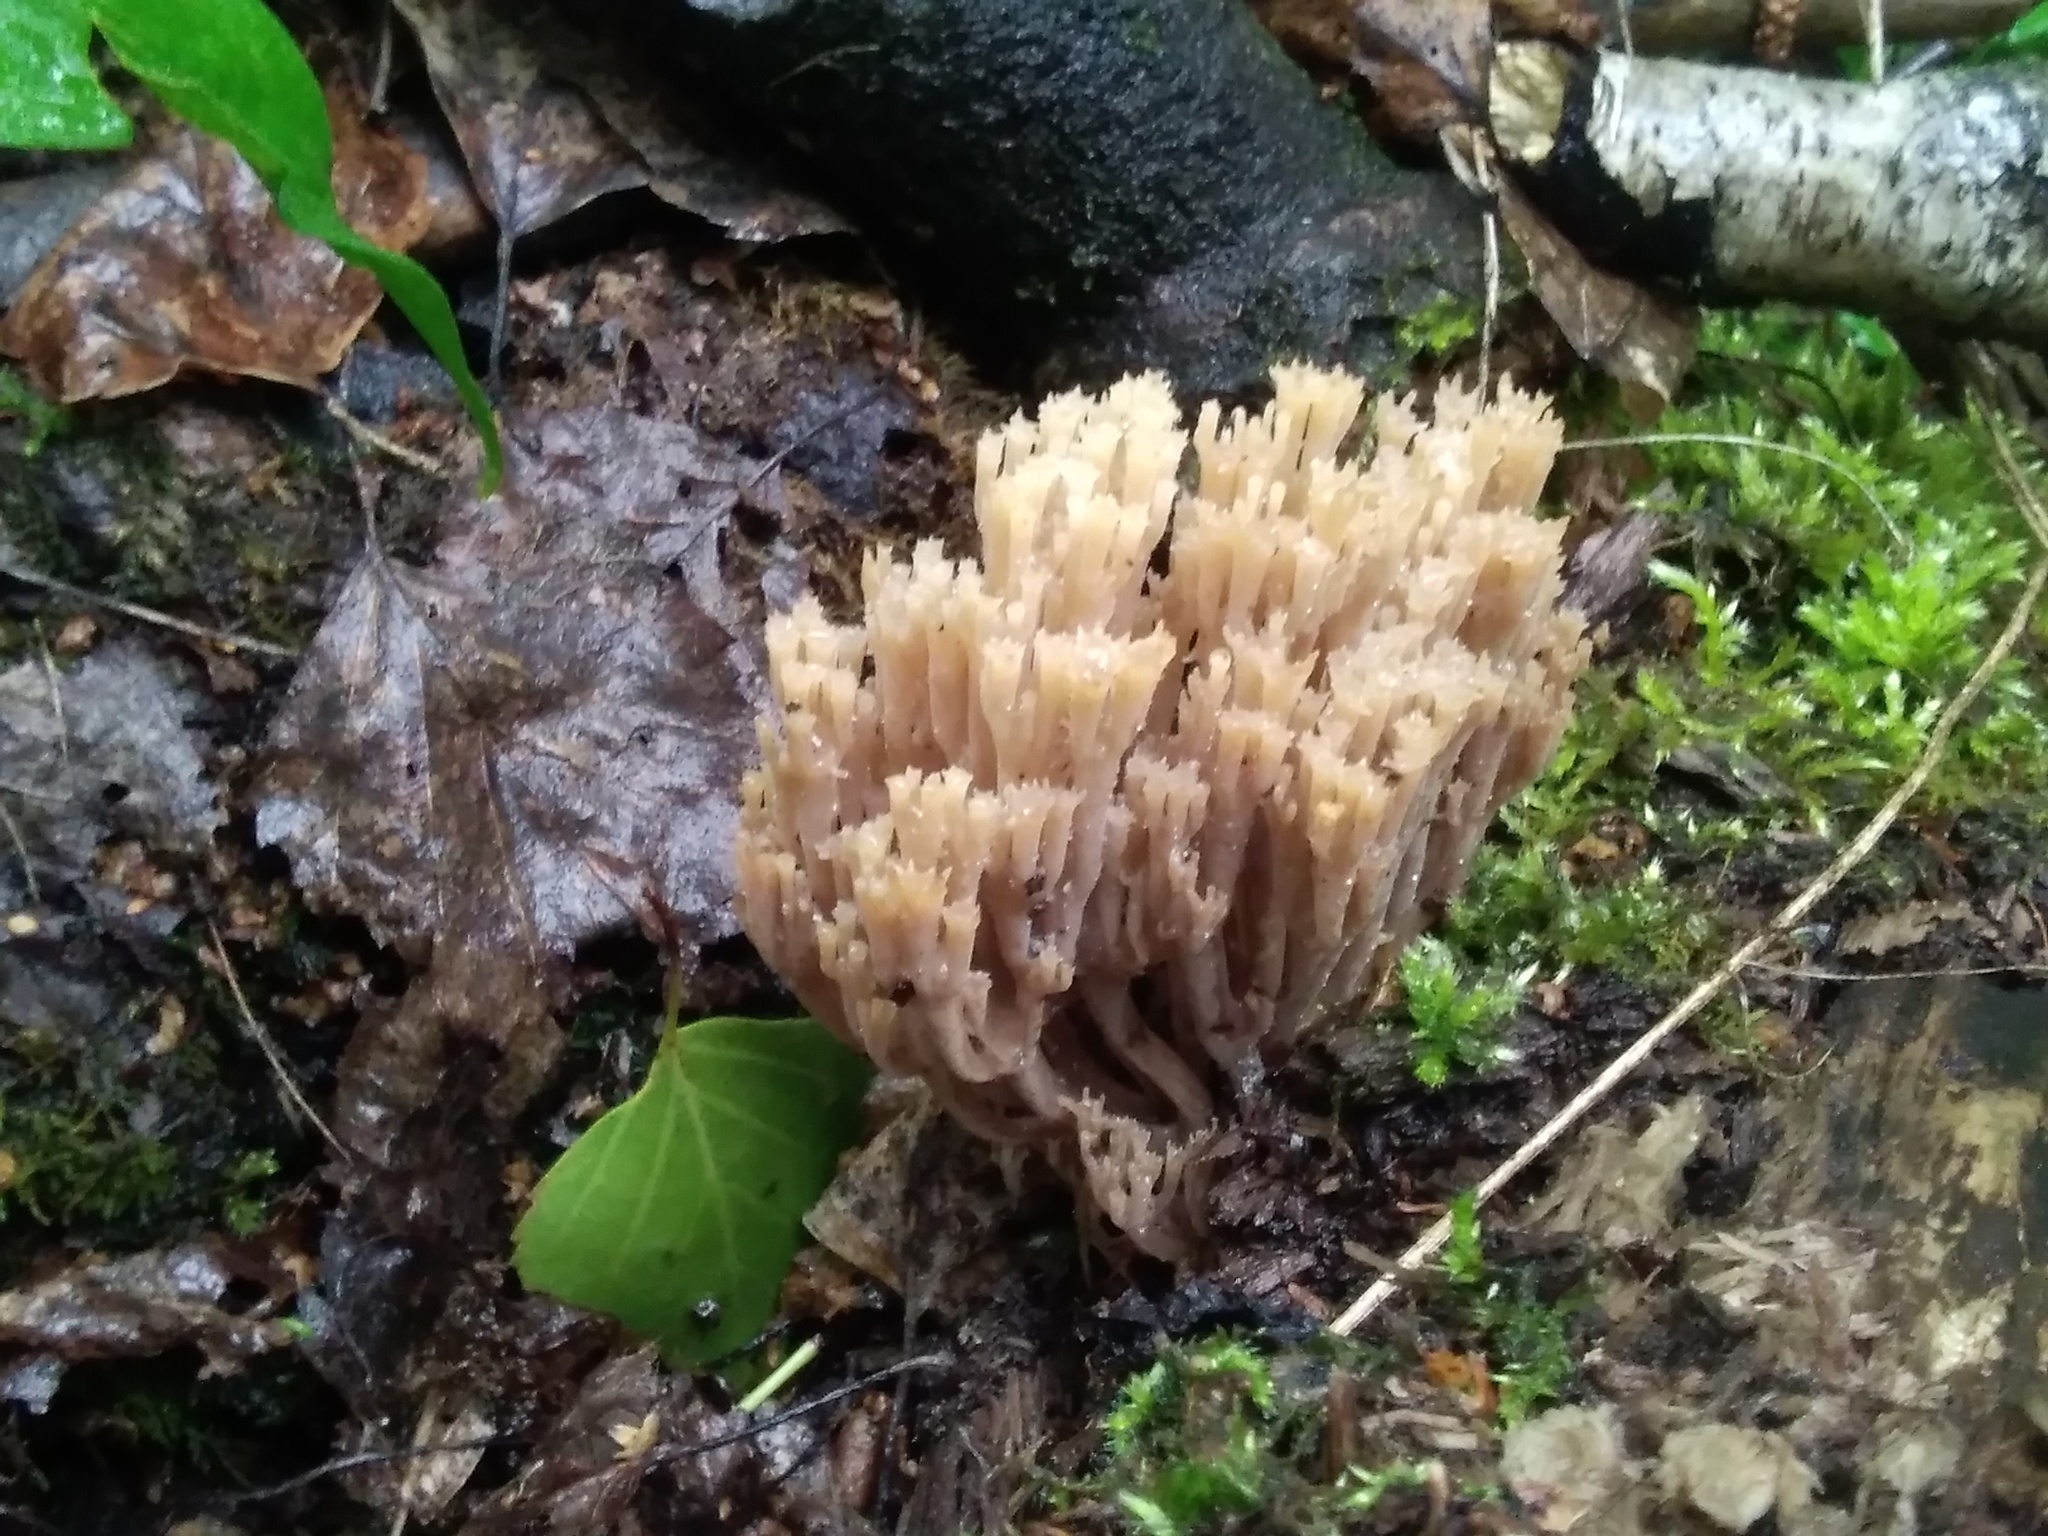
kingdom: Fungi
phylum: Basidiomycota
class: Agaricomycetes
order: Russulales
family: Auriscalpiaceae
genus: Artomyces
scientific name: Artomyces pyxidatus
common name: Crown-tipped coral fungus
